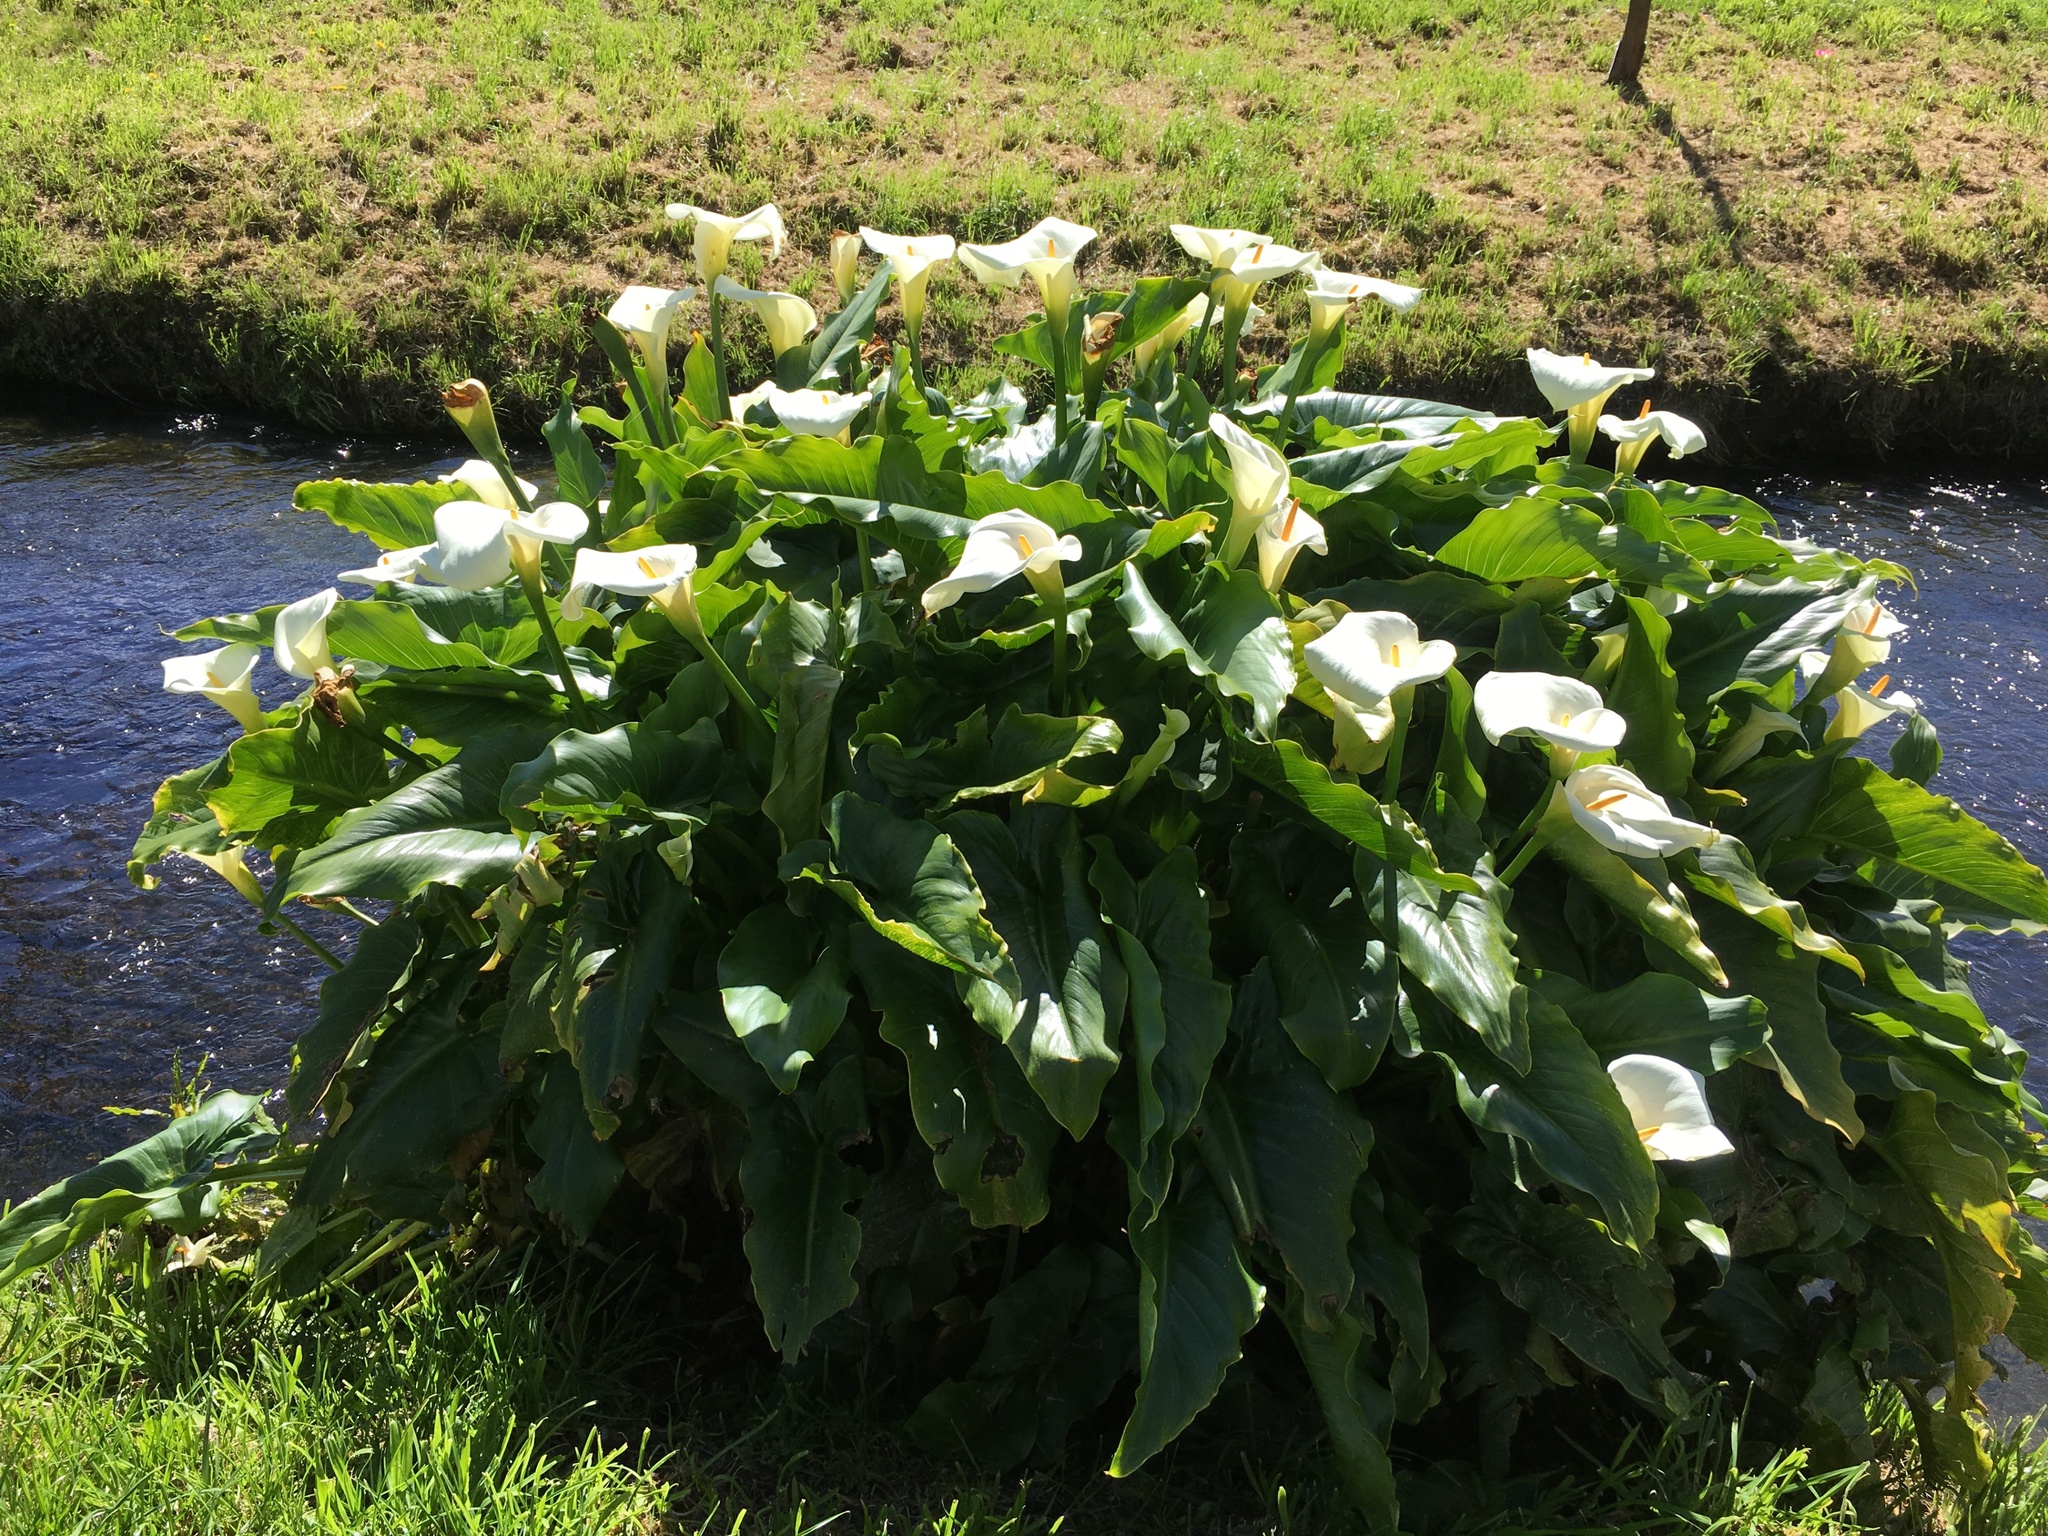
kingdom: Plantae
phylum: Tracheophyta
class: Liliopsida
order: Alismatales
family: Araceae
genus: Zantedeschia
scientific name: Zantedeschia aethiopica
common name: Altar-lily
